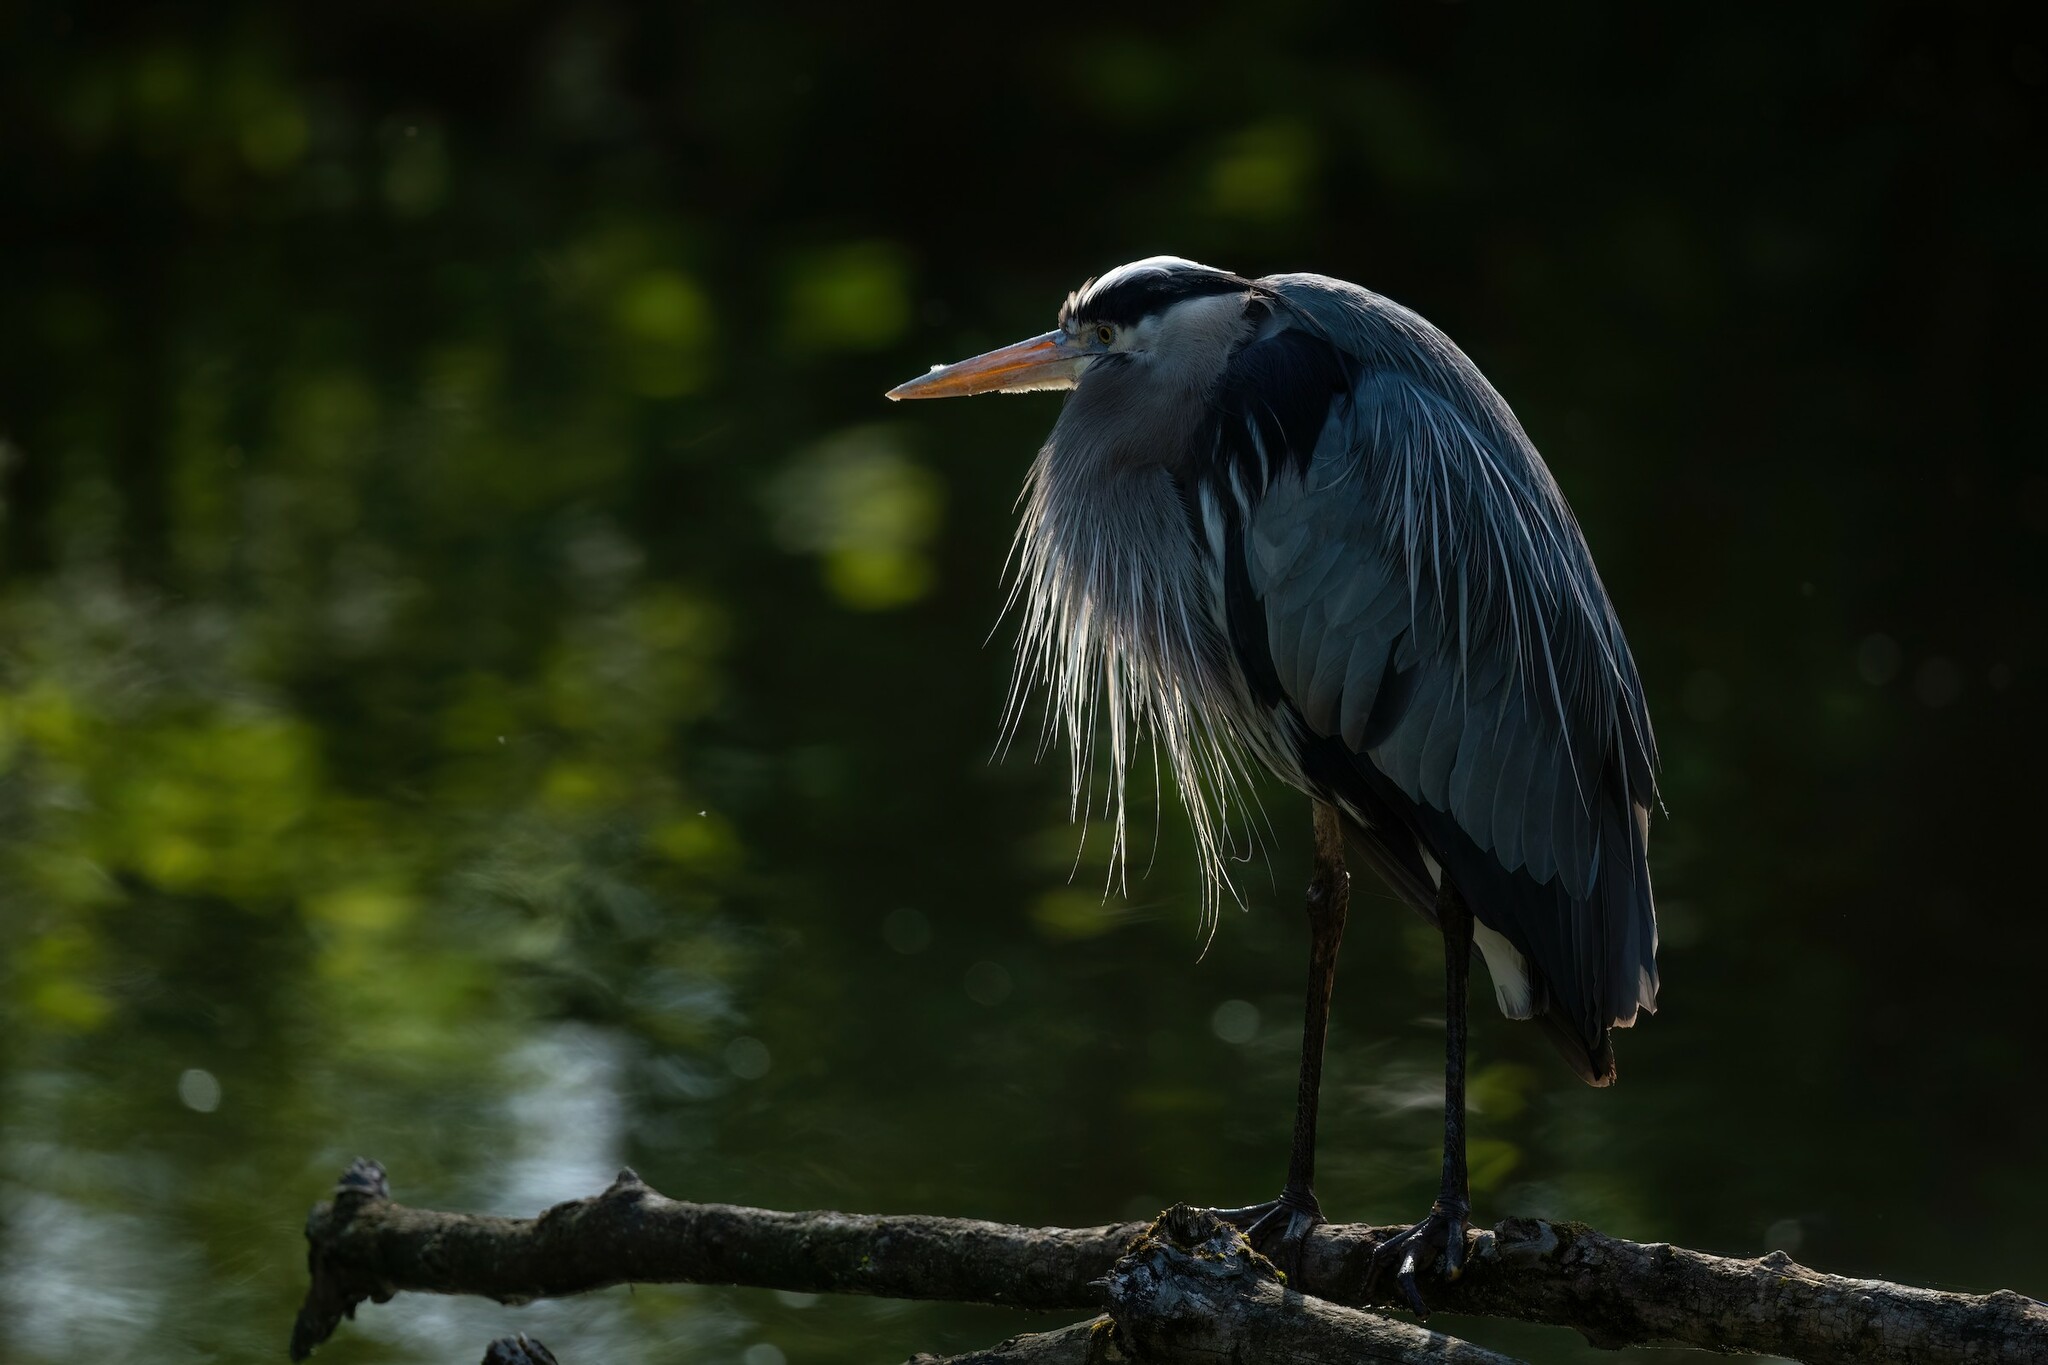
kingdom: Animalia
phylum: Chordata
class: Aves
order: Pelecaniformes
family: Ardeidae
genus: Ardea
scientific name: Ardea herodias
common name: Great blue heron
